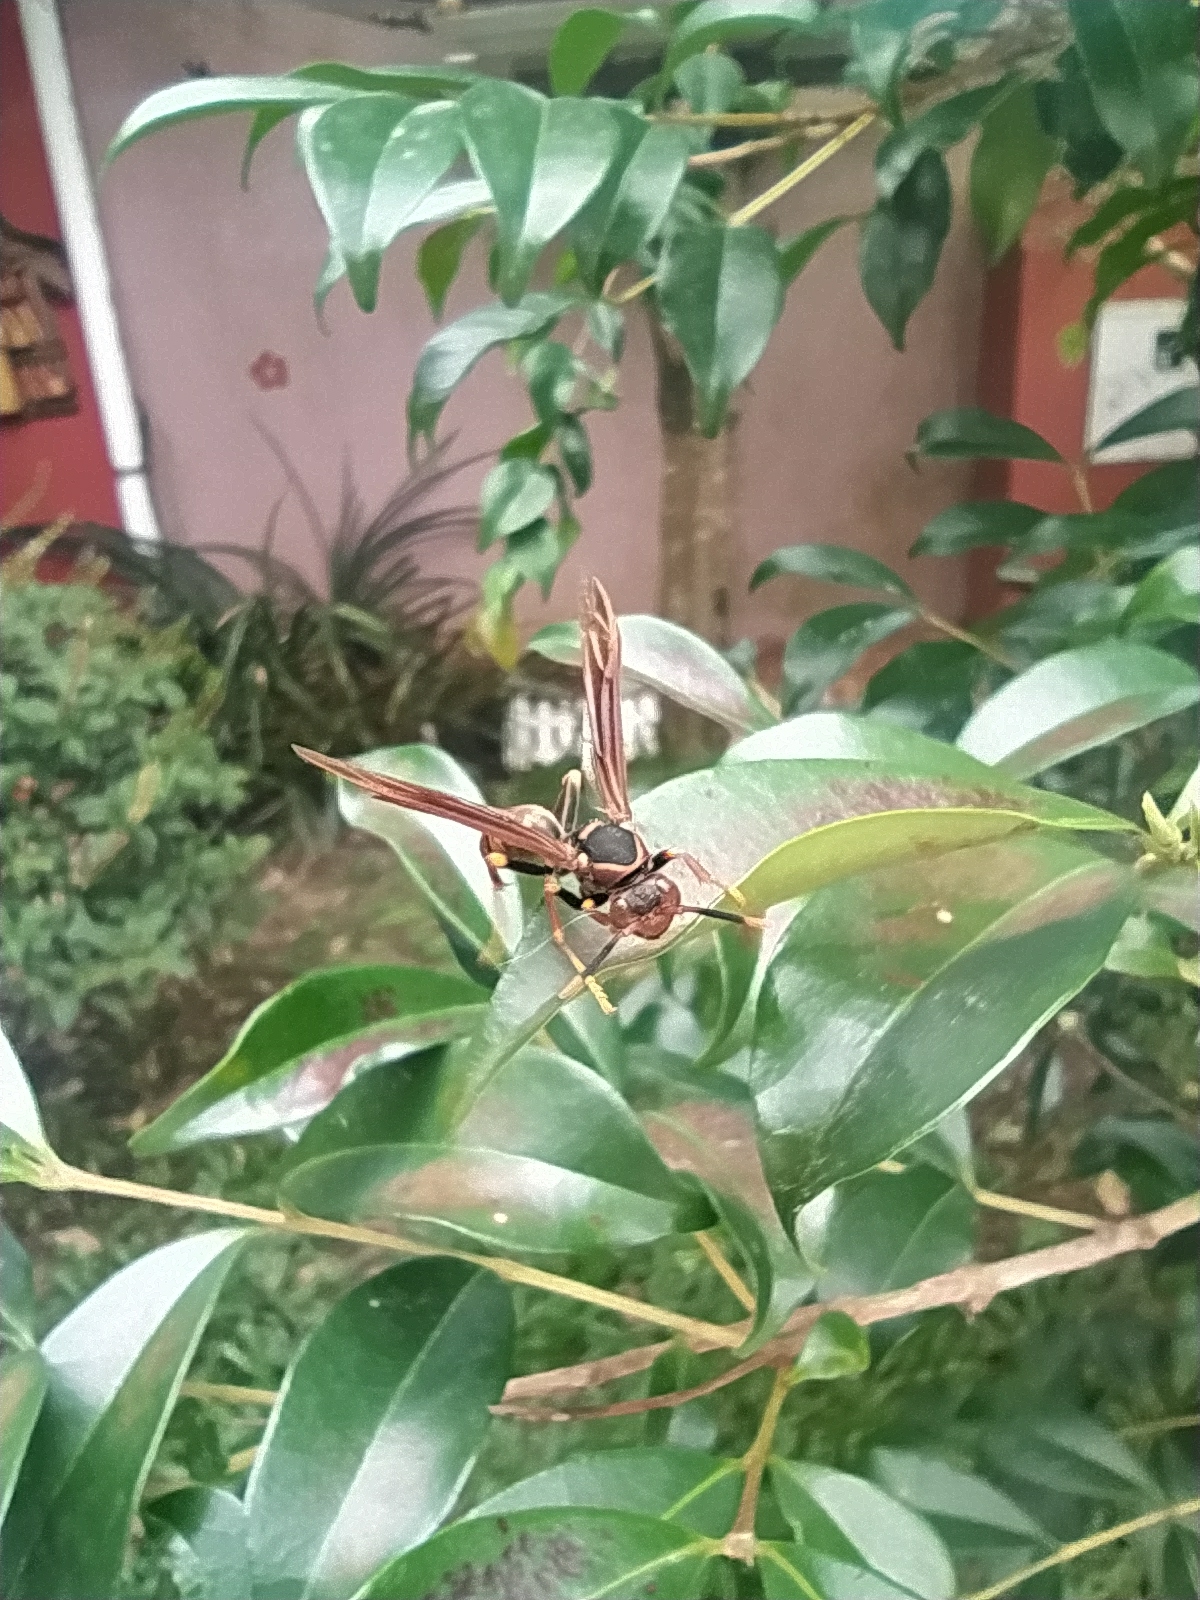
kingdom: Animalia
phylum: Arthropoda
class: Insecta
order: Hymenoptera
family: Eumenidae
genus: Polistes
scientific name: Polistes cavapytiformis
